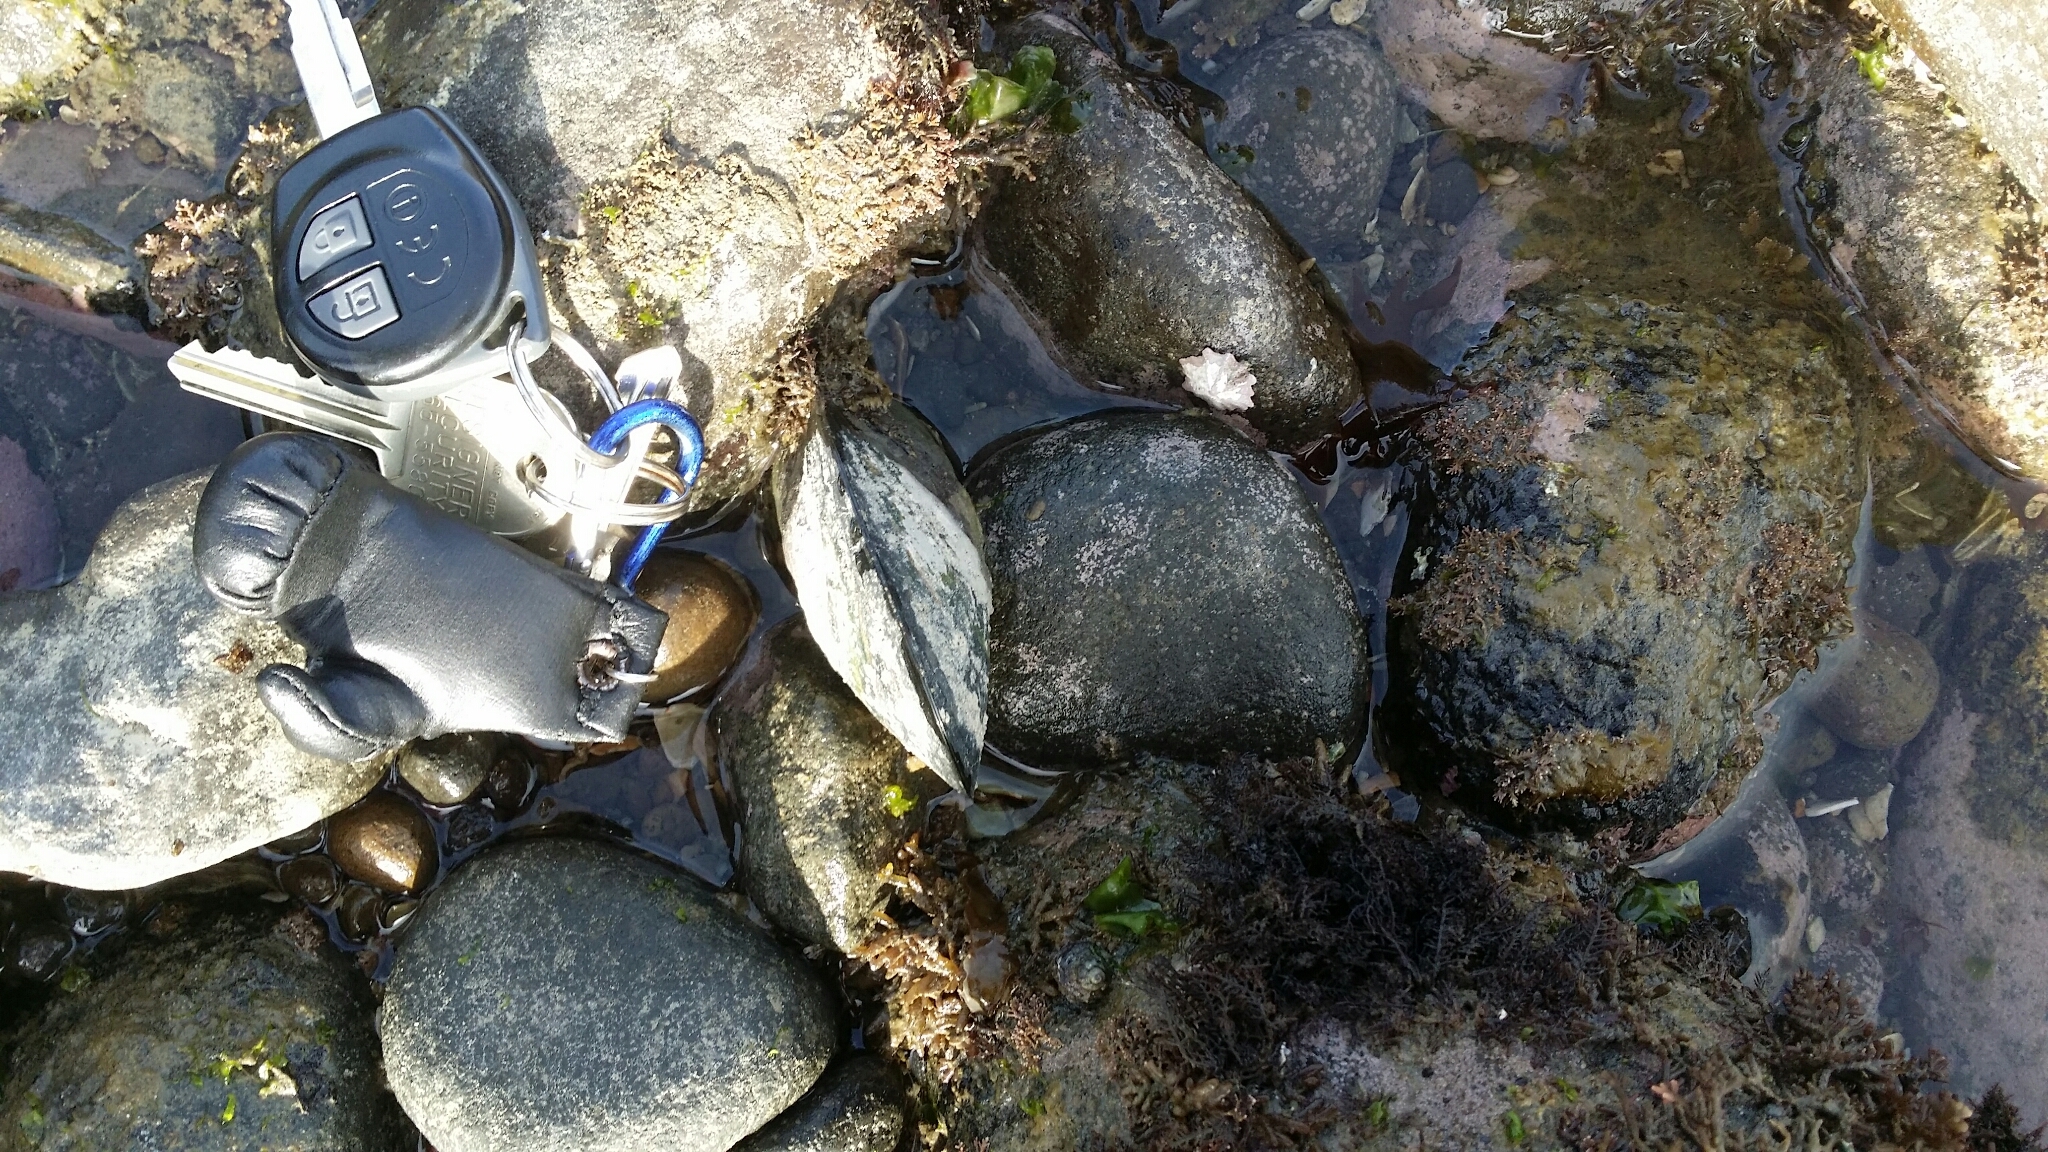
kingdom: Animalia
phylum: Mollusca
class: Bivalvia
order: Mytilida
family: Mytilidae
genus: Perna
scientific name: Perna canaliculus
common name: New zealand greenshelltm
